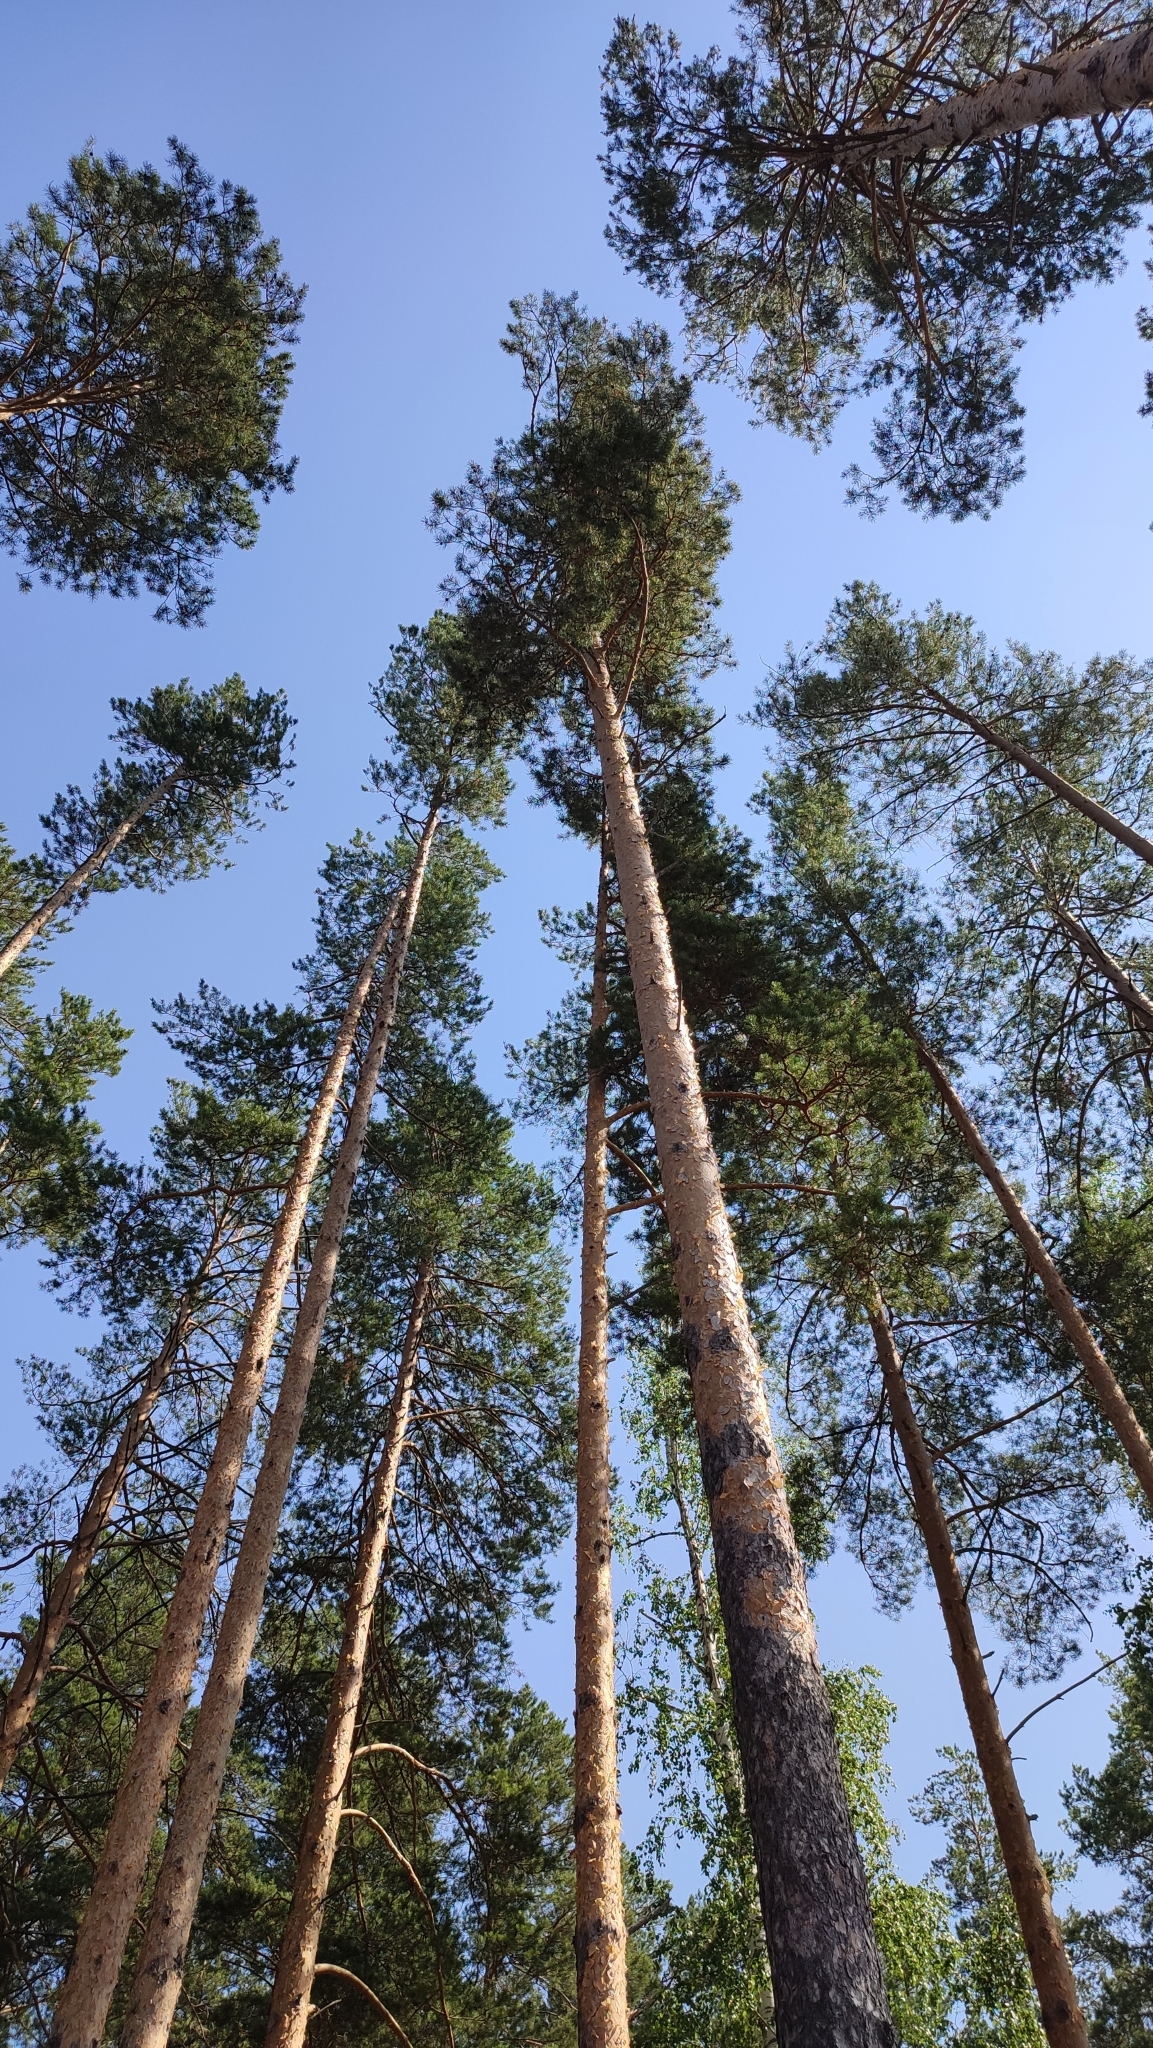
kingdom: Plantae
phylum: Tracheophyta
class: Pinopsida
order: Pinales
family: Pinaceae
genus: Pinus
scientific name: Pinus sylvestris
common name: Scots pine
